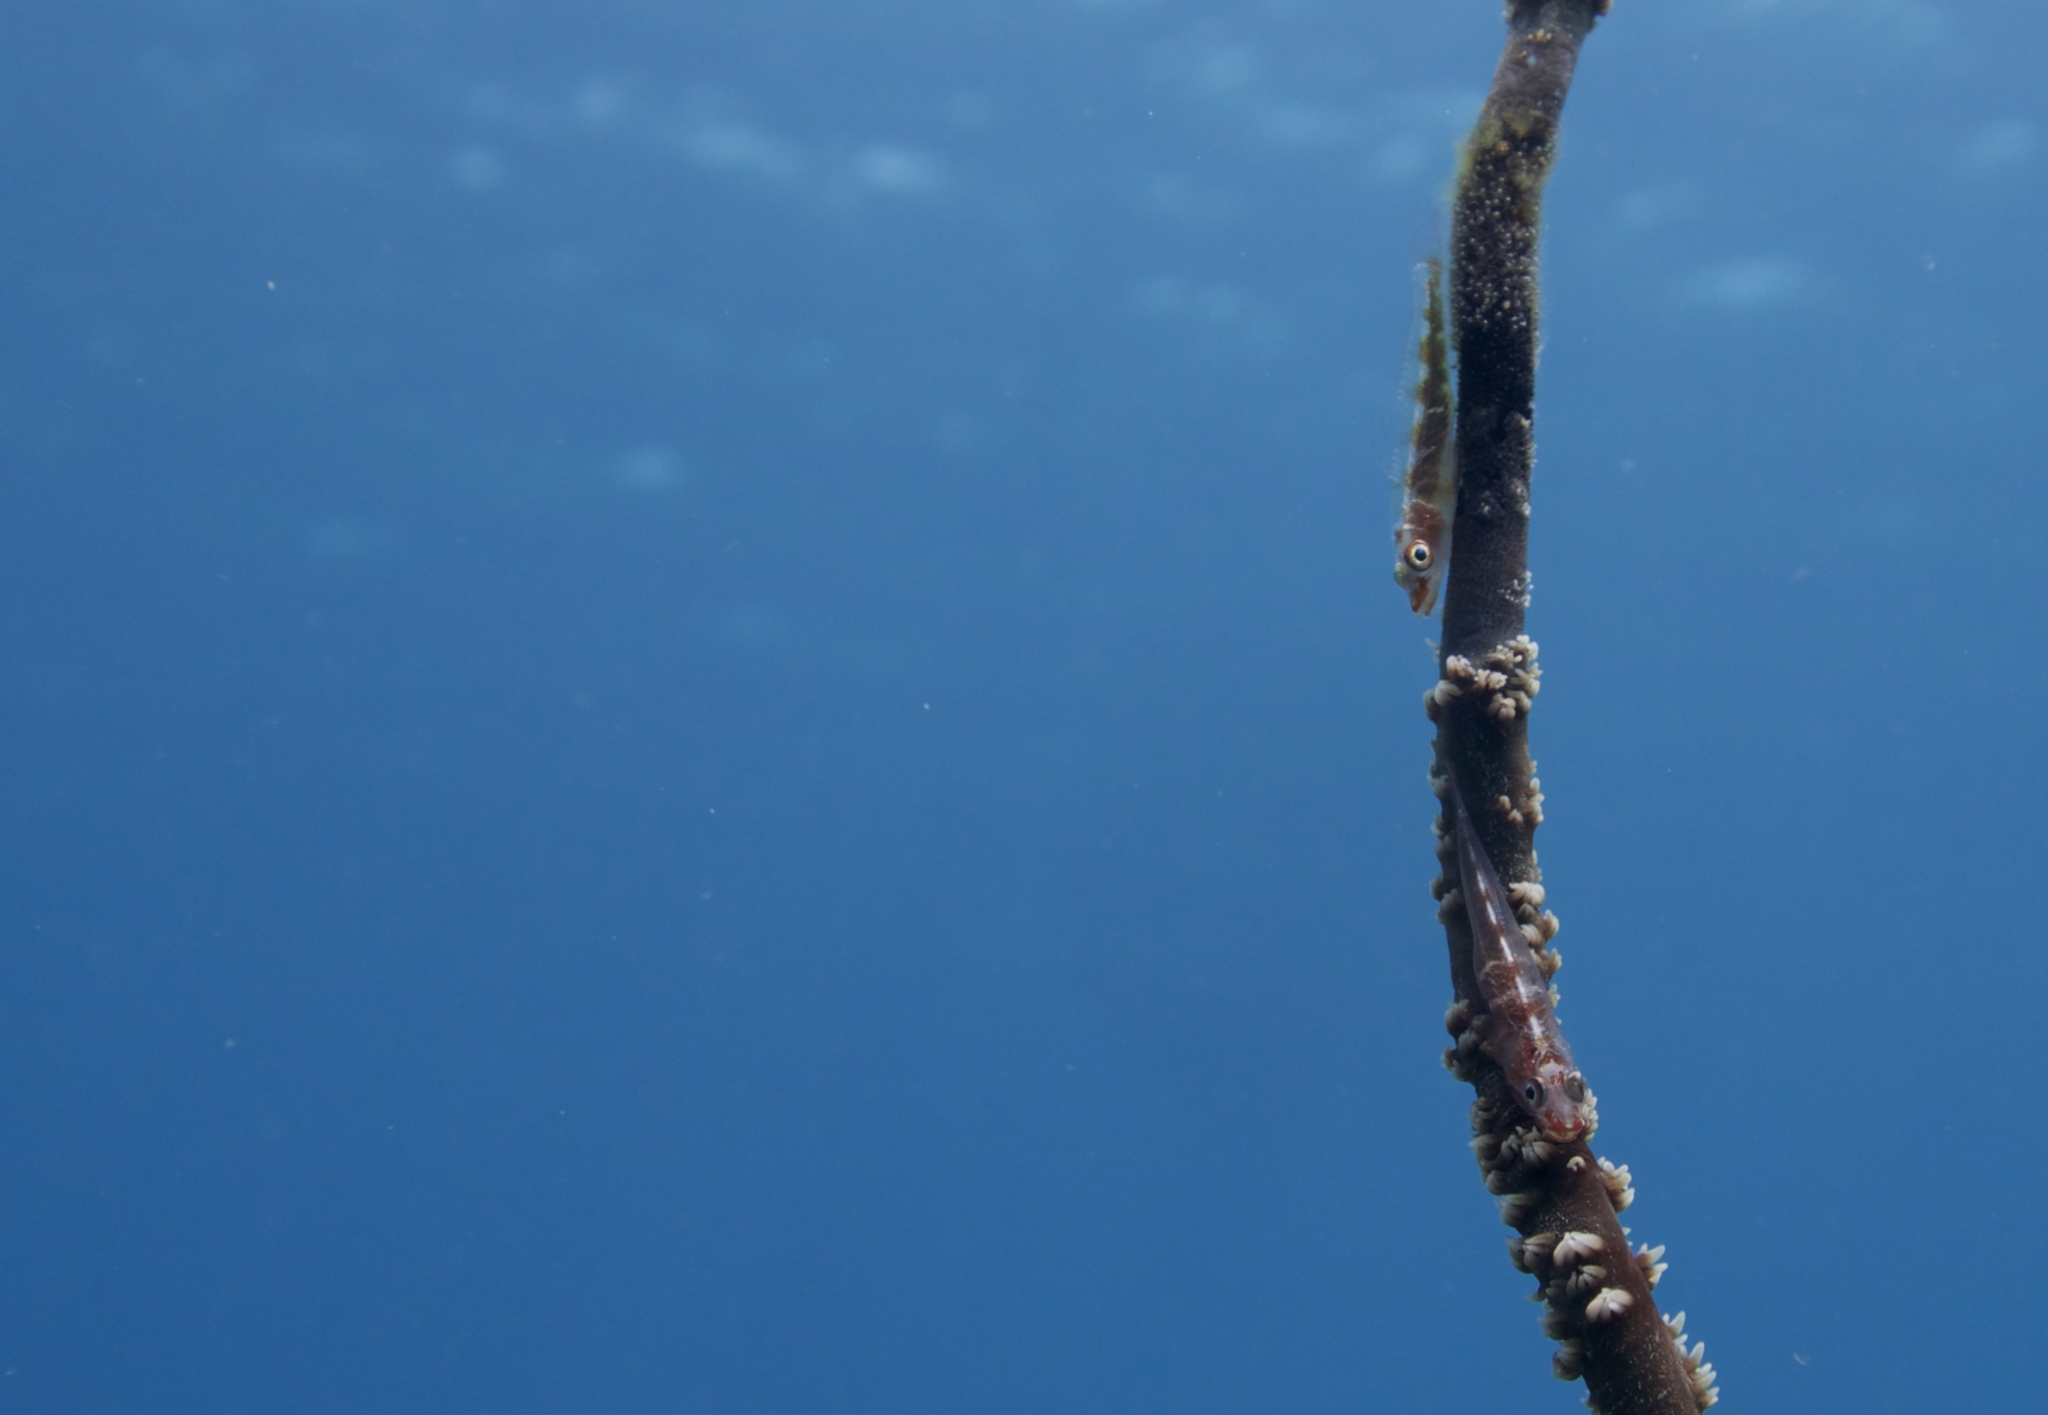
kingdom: Animalia
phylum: Chordata
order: Perciformes
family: Gobiidae
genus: Bryaninops
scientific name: Bryaninops yongei
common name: Whip coral goby
